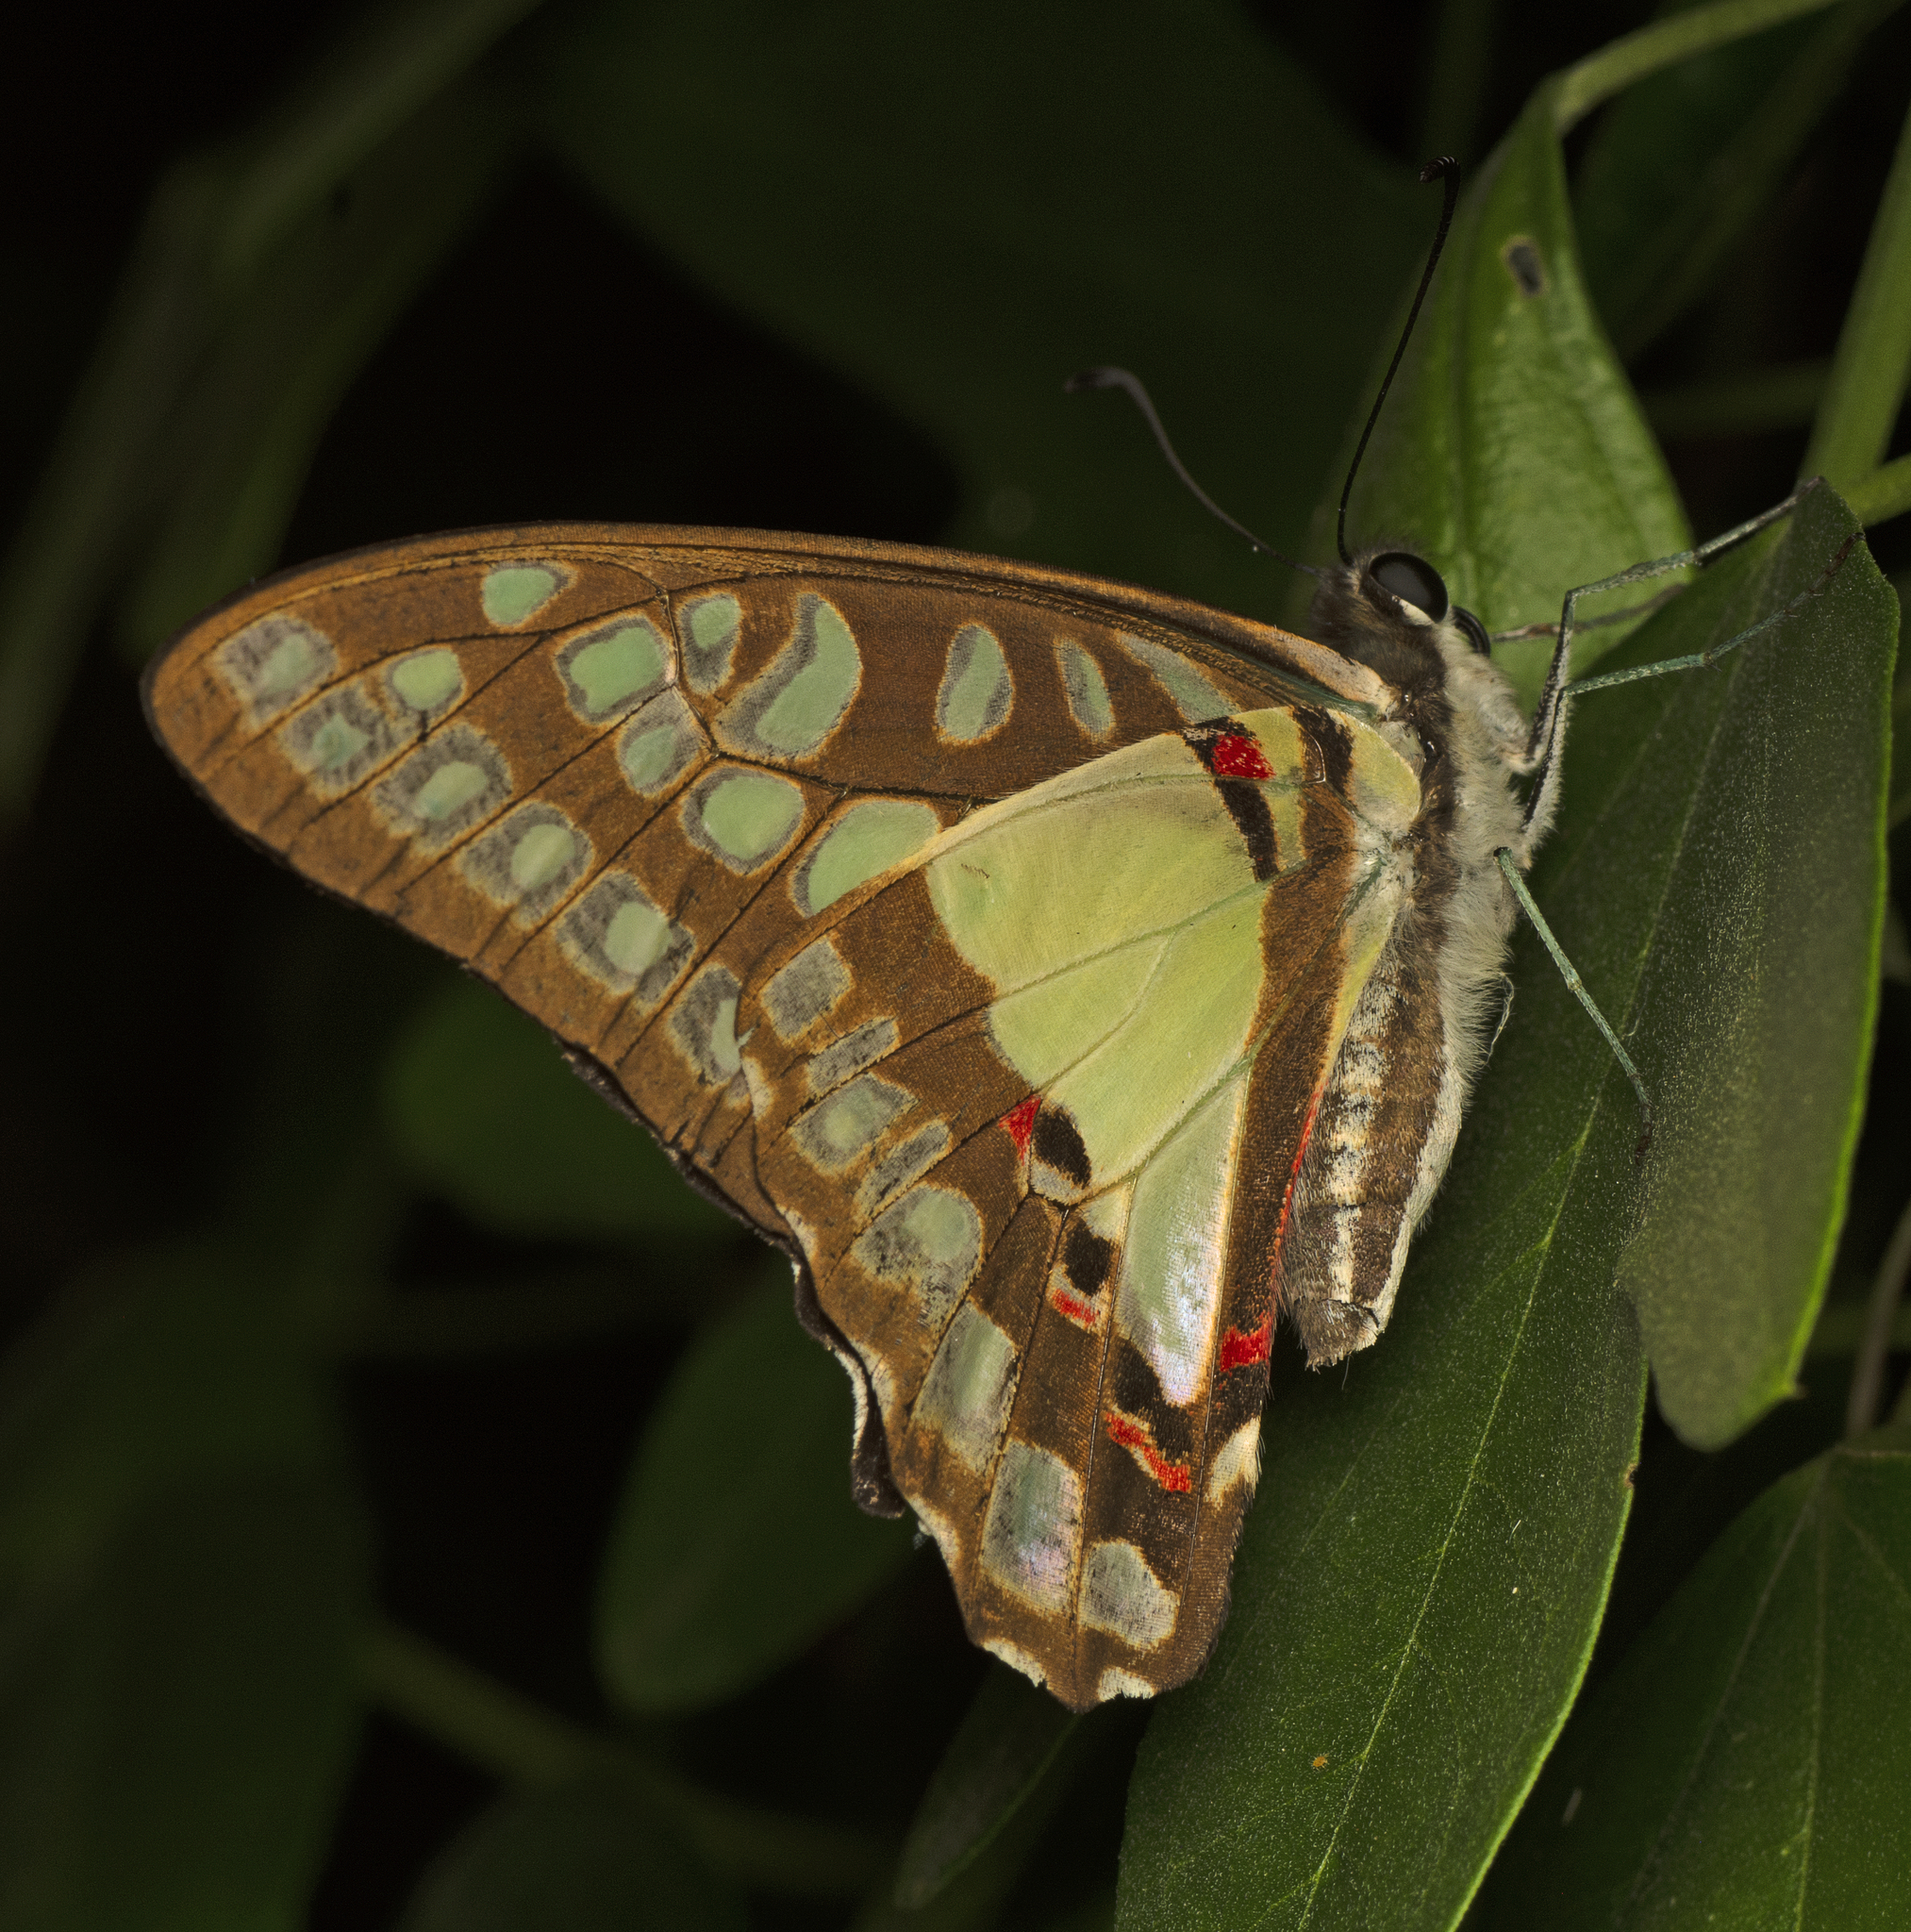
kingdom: Animalia
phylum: Arthropoda
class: Insecta
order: Lepidoptera
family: Papilionidae
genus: Graphium
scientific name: Graphium eurypylus
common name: Great jay
